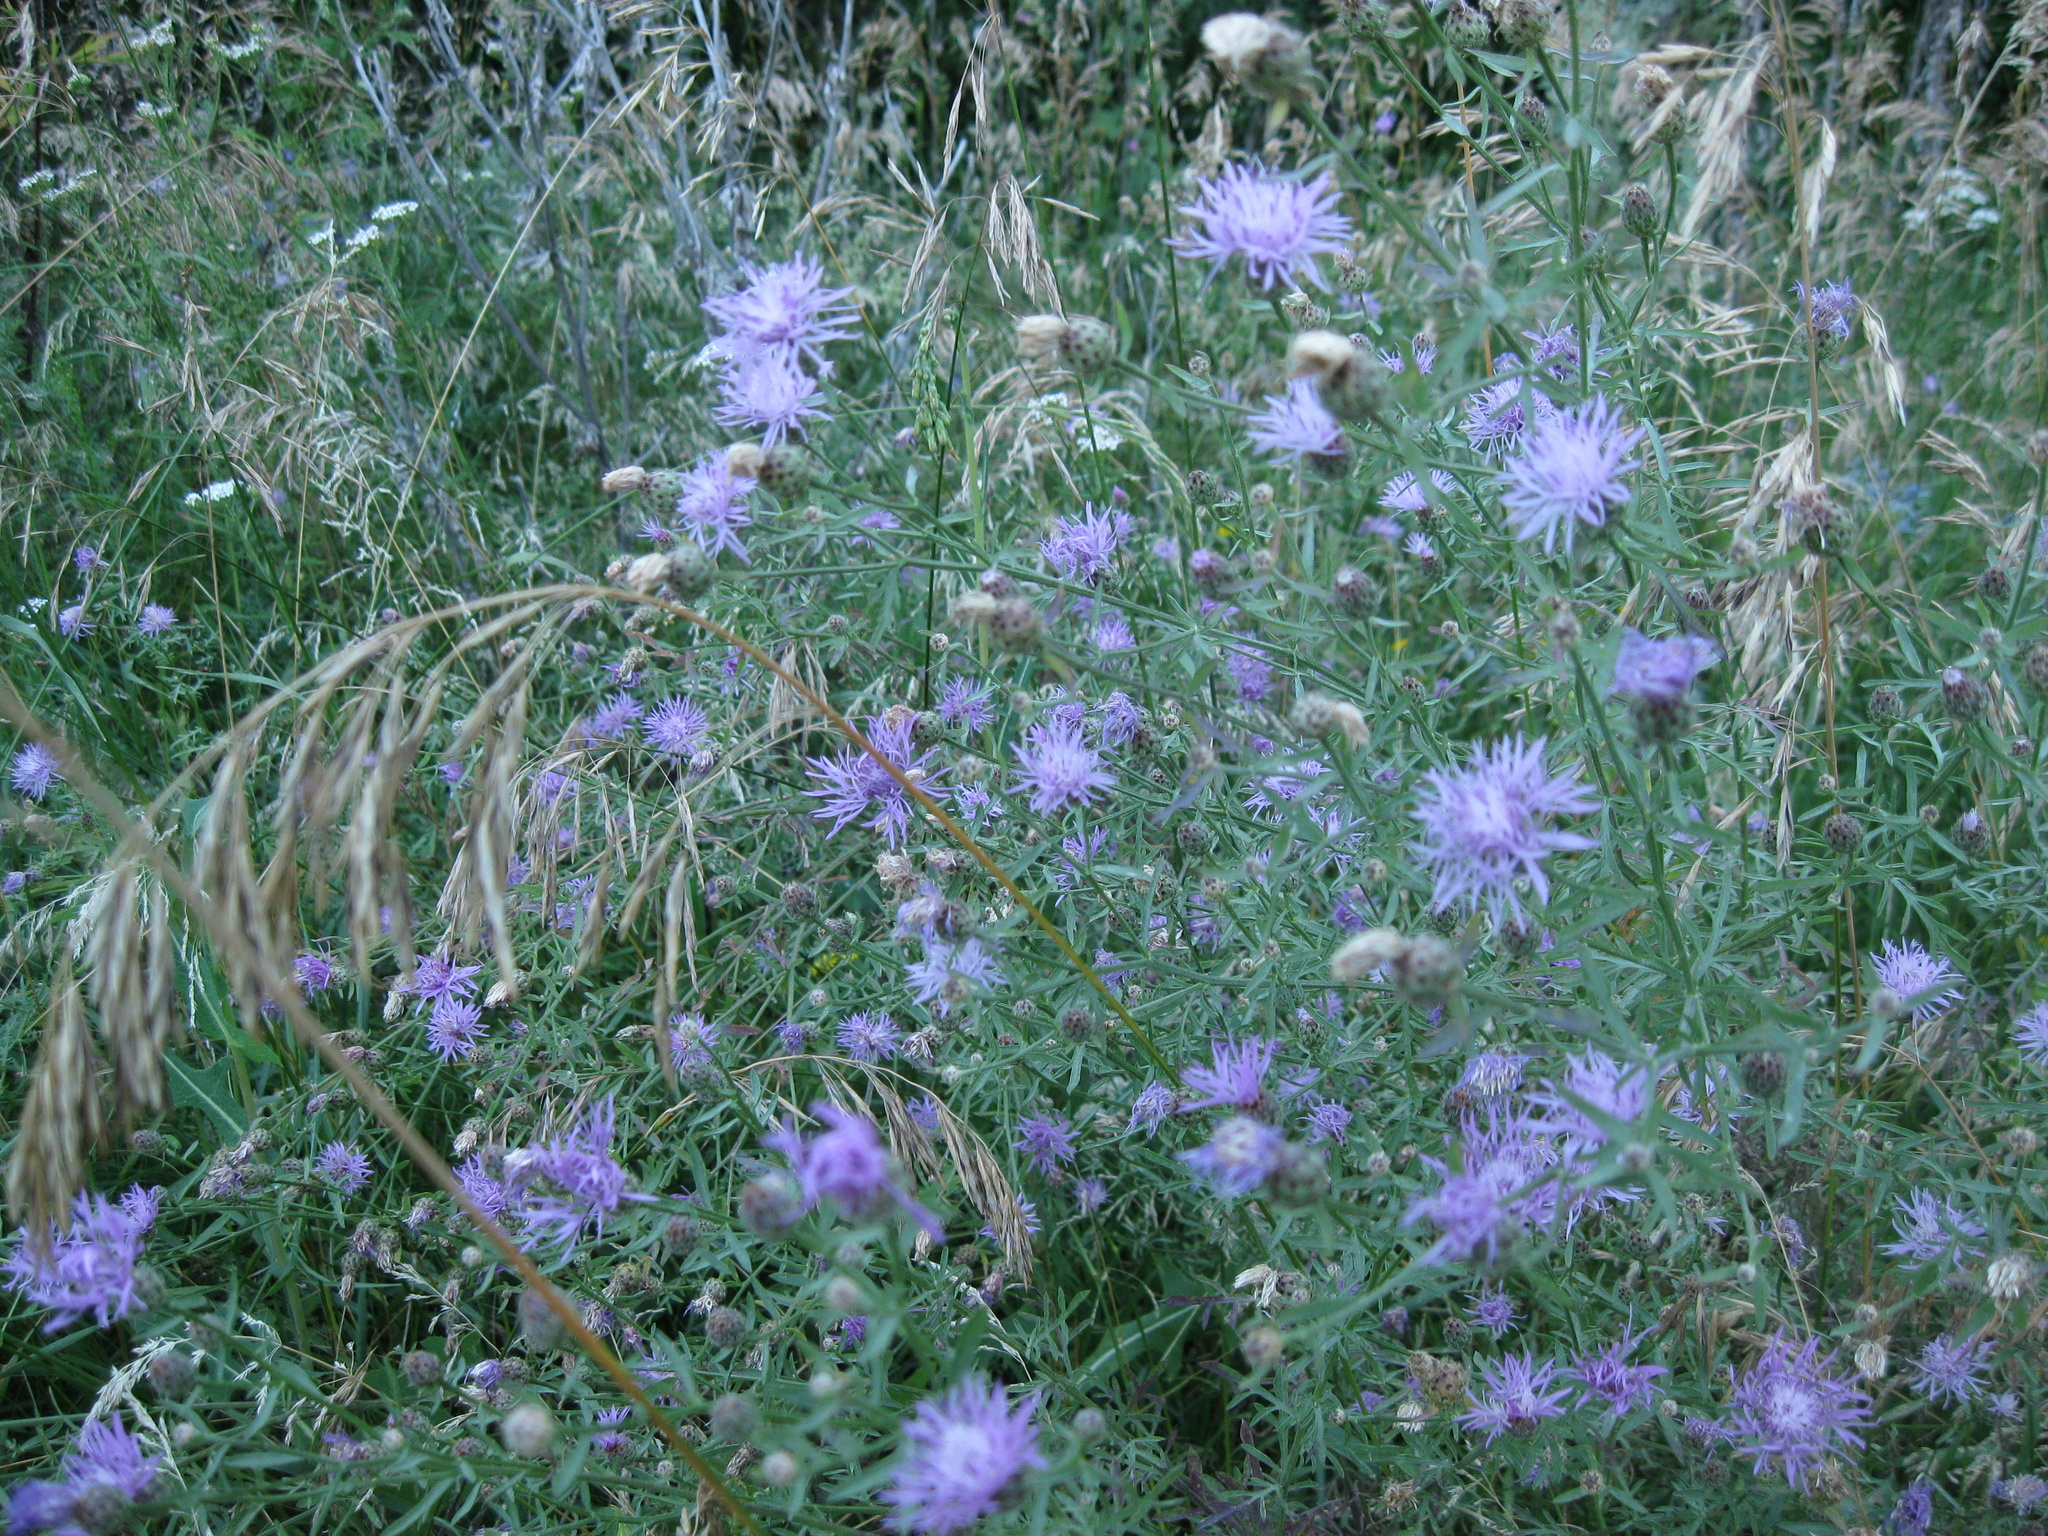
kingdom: Plantae
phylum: Tracheophyta
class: Magnoliopsida
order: Asterales
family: Asteraceae
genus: Centaurea
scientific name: Centaurea scabiosa
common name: Greater knapweed
